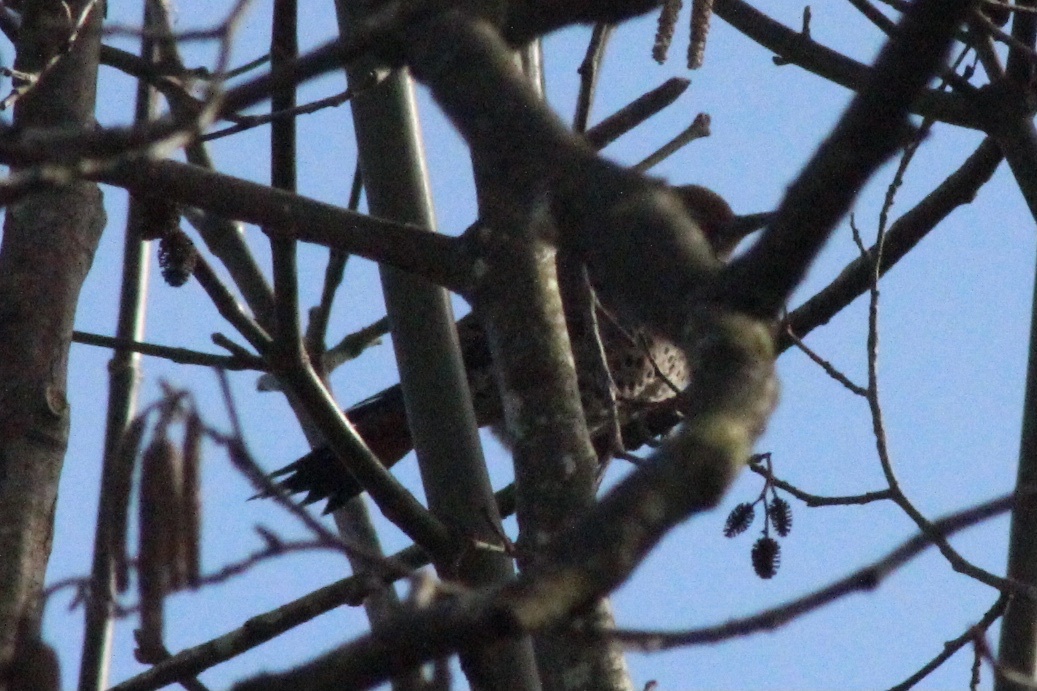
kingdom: Animalia
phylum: Chordata
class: Aves
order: Piciformes
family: Picidae
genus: Colaptes
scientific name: Colaptes auratus
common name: Northern flicker
